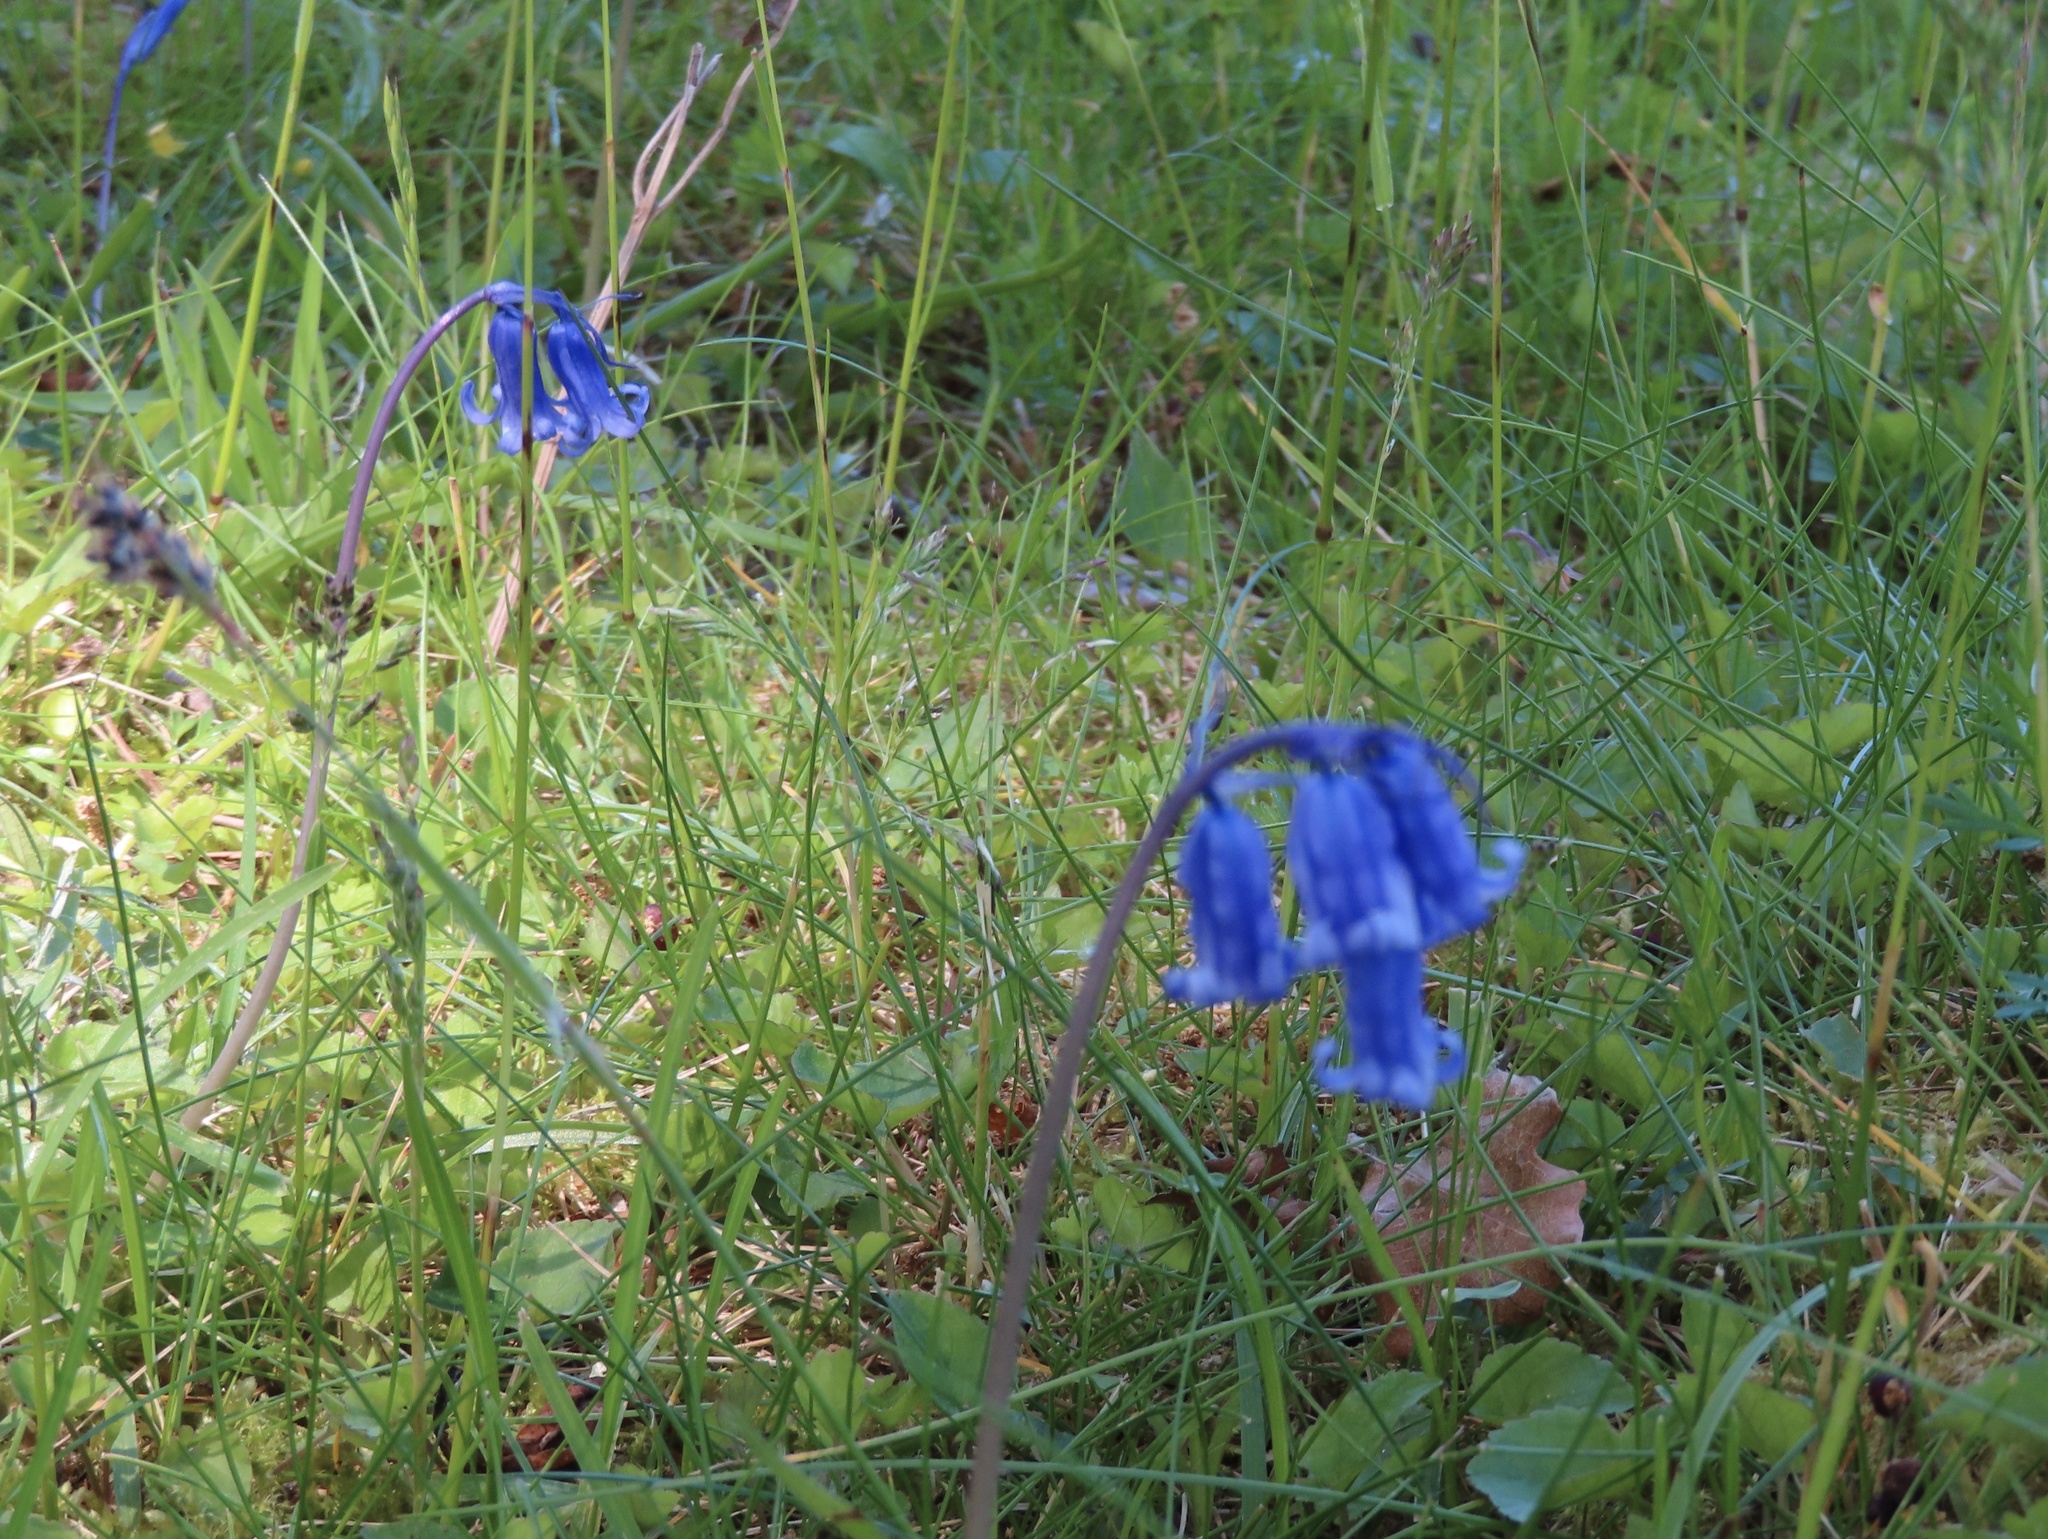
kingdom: Plantae
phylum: Tracheophyta
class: Liliopsida
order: Asparagales
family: Asparagaceae
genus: Hyacinthoides
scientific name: Hyacinthoides non-scripta
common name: Bluebell
